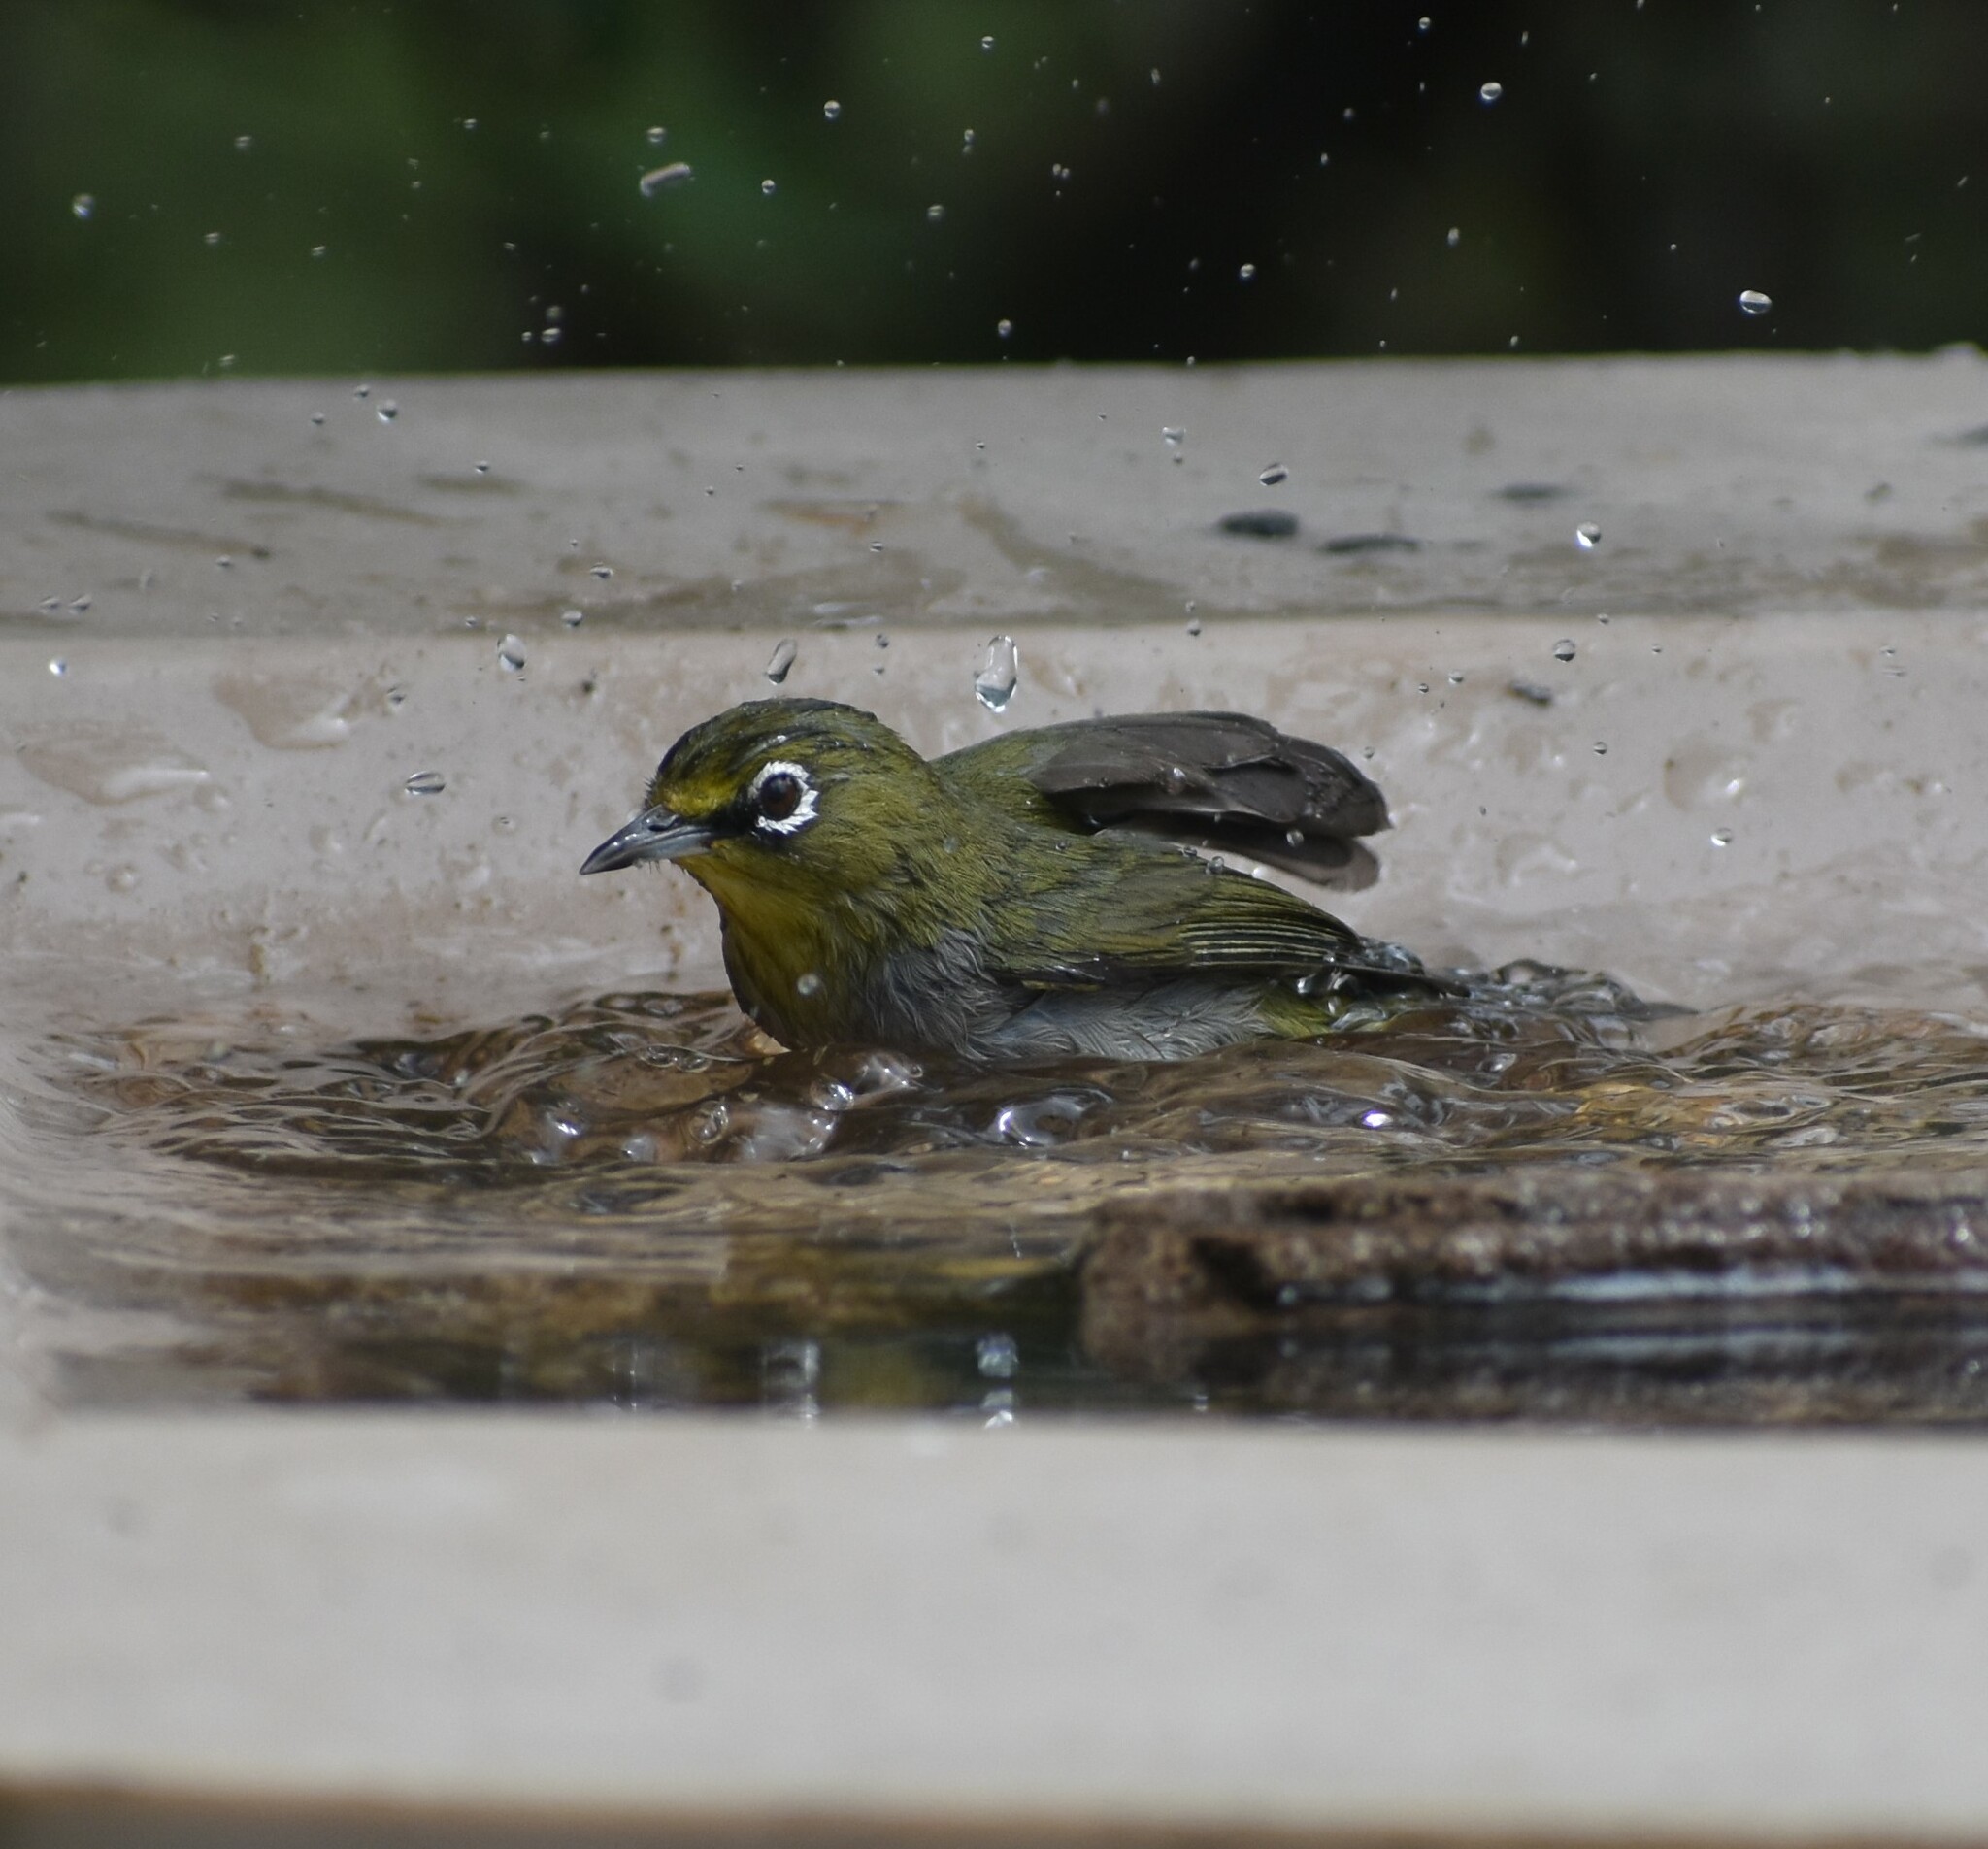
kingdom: Animalia
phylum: Chordata
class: Aves
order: Passeriformes
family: Zosteropidae
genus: Zosterops
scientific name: Zosterops virens
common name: Cape white-eye
